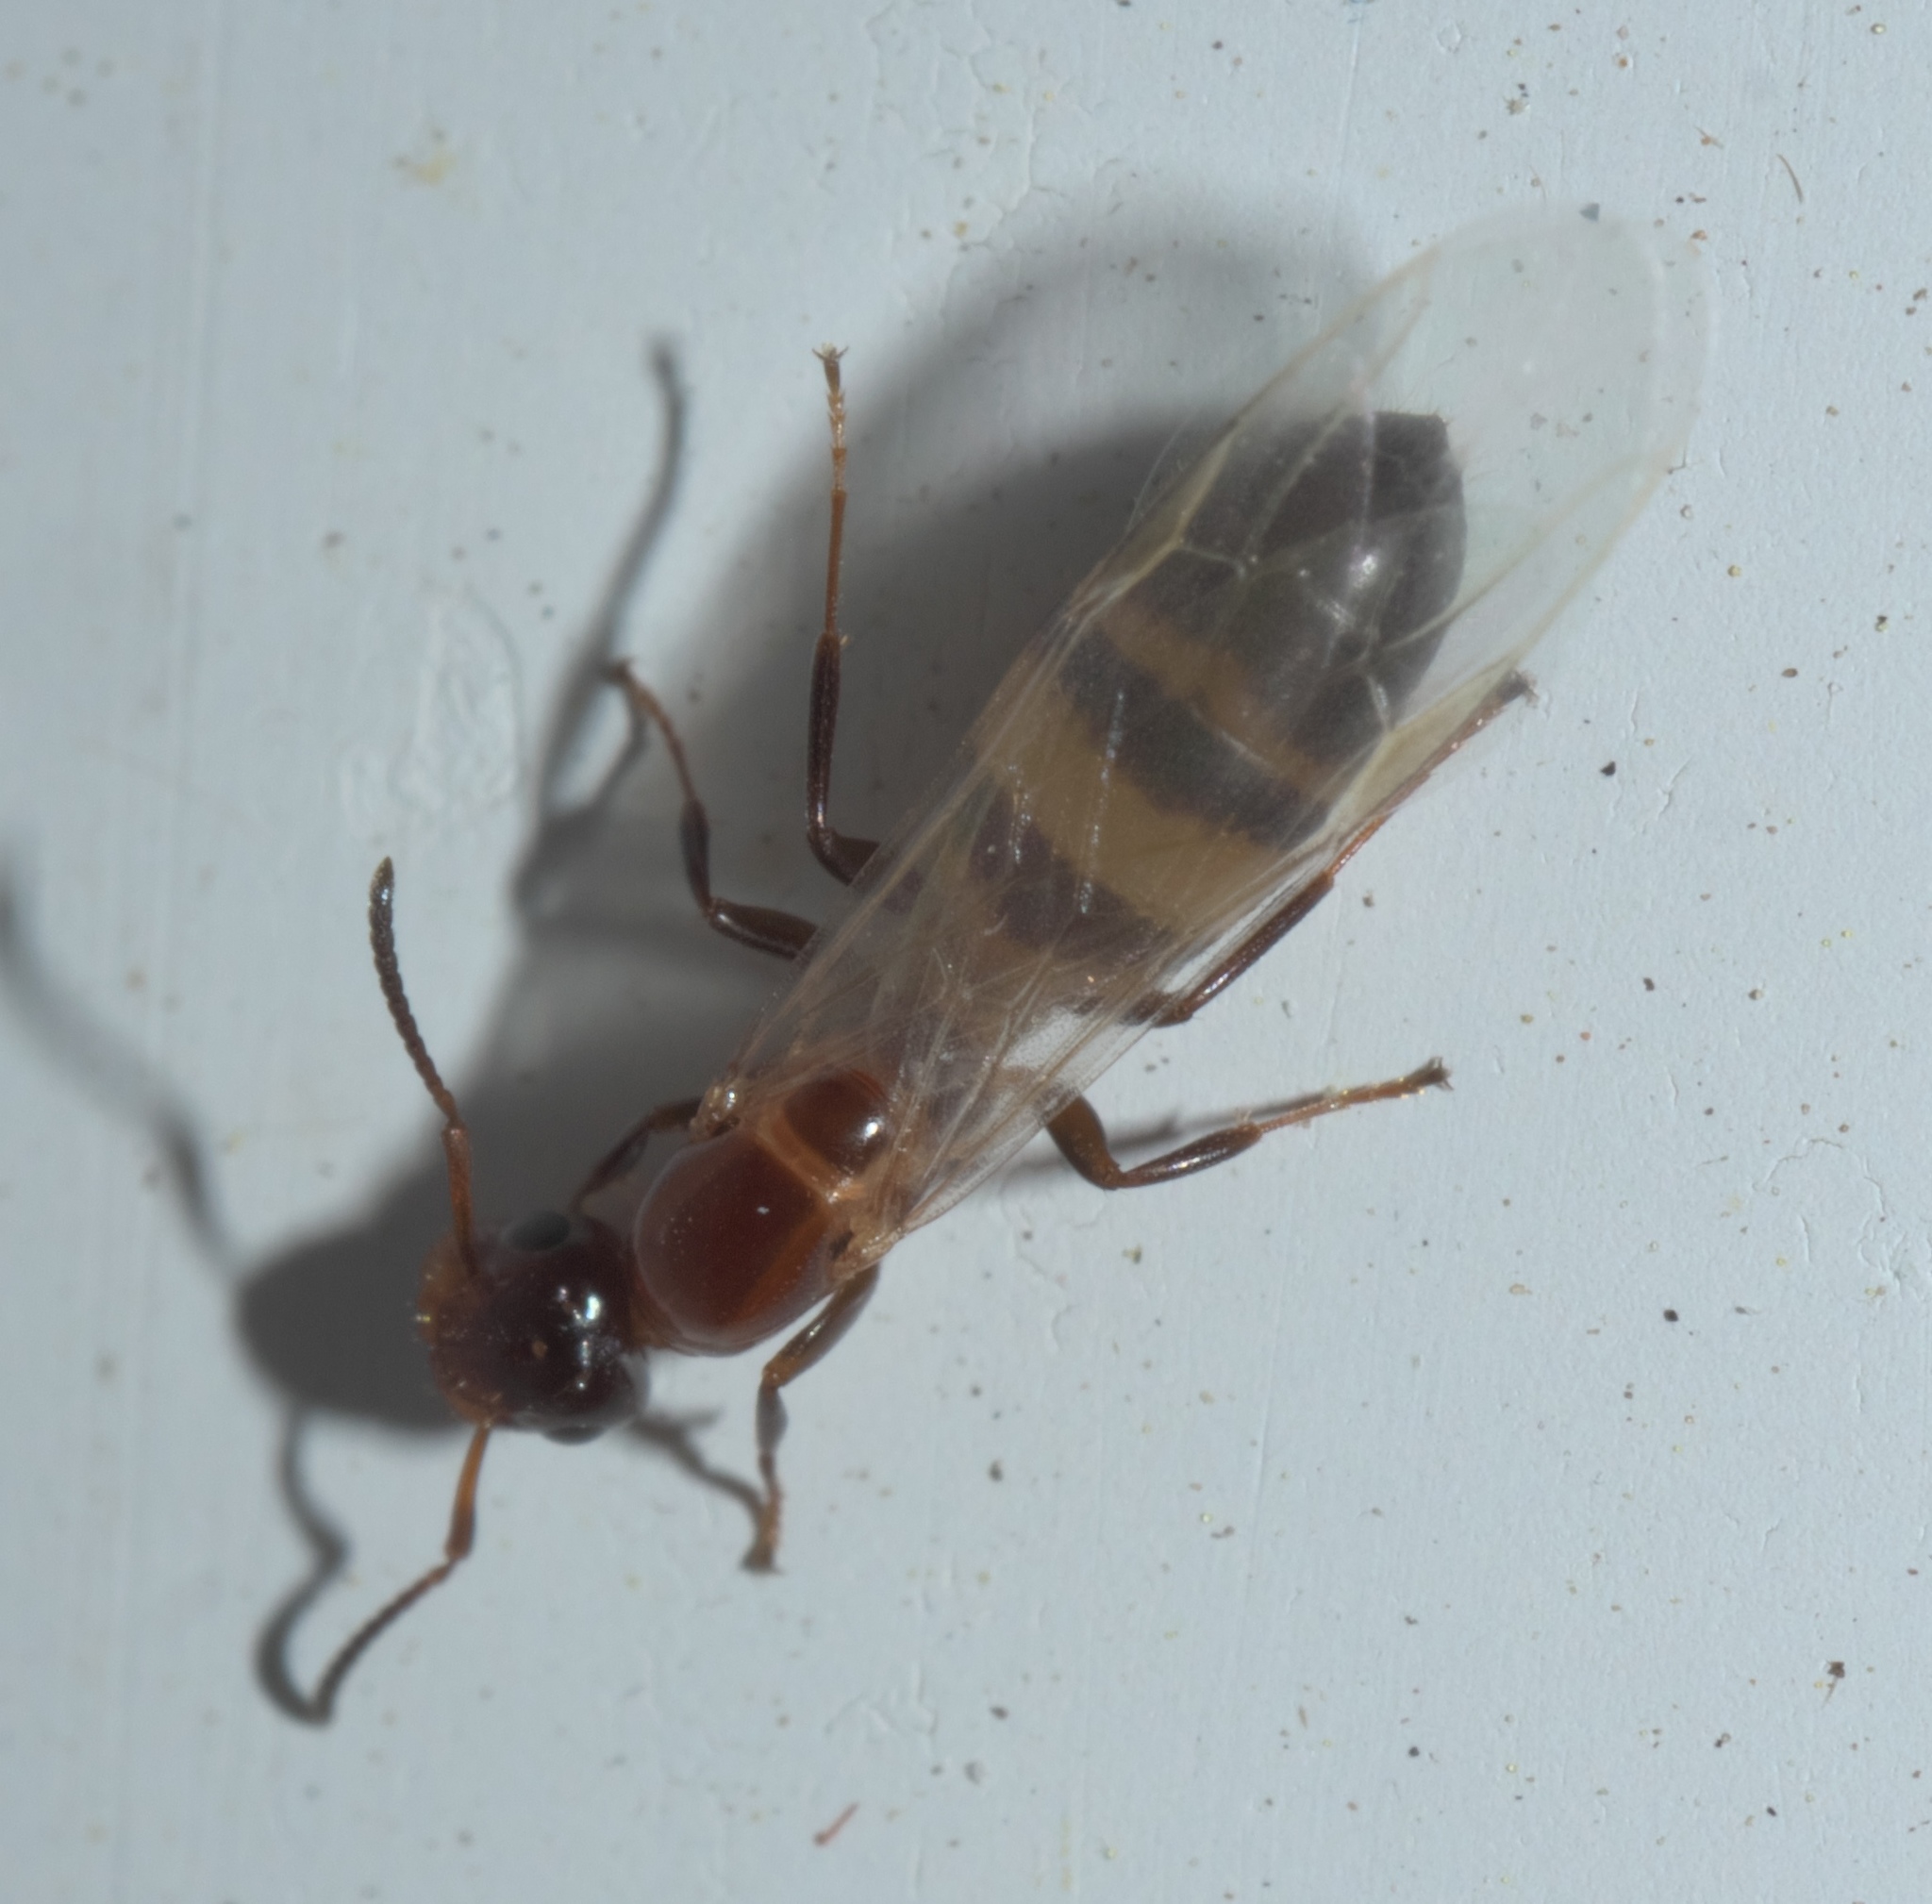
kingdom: Animalia
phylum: Arthropoda
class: Insecta
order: Hymenoptera
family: Formicidae
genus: Colobopsis
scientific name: Colobopsis impressa
